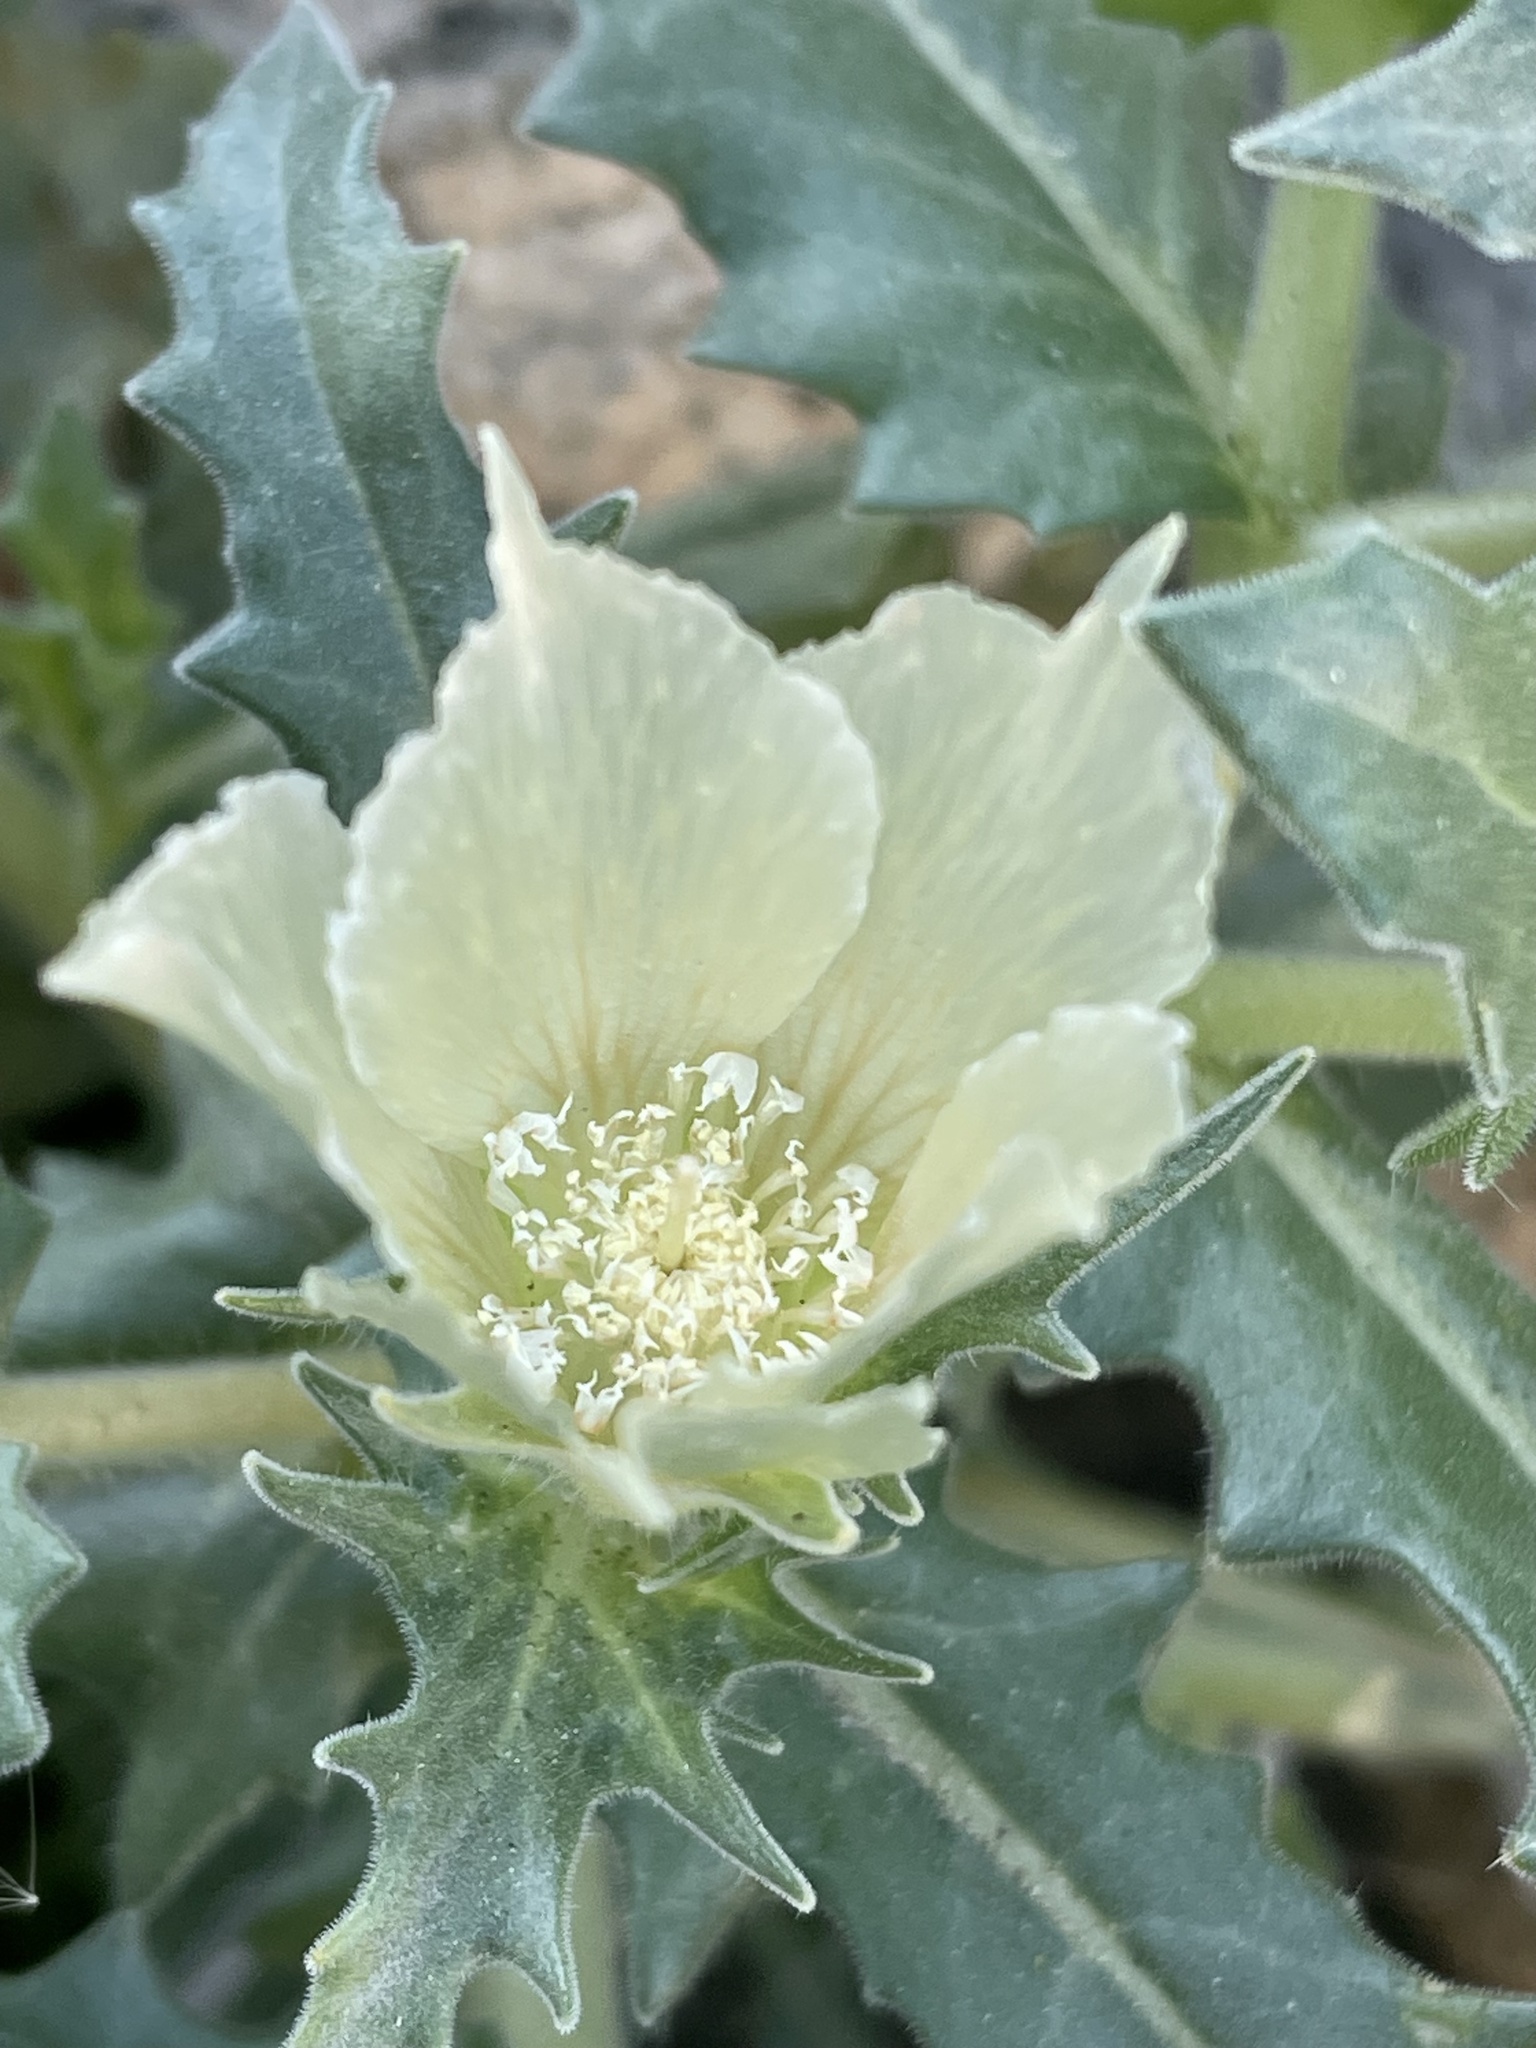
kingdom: Plantae
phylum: Tracheophyta
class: Magnoliopsida
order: Cornales
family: Loasaceae
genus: Mentzelia
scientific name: Mentzelia involucrata
